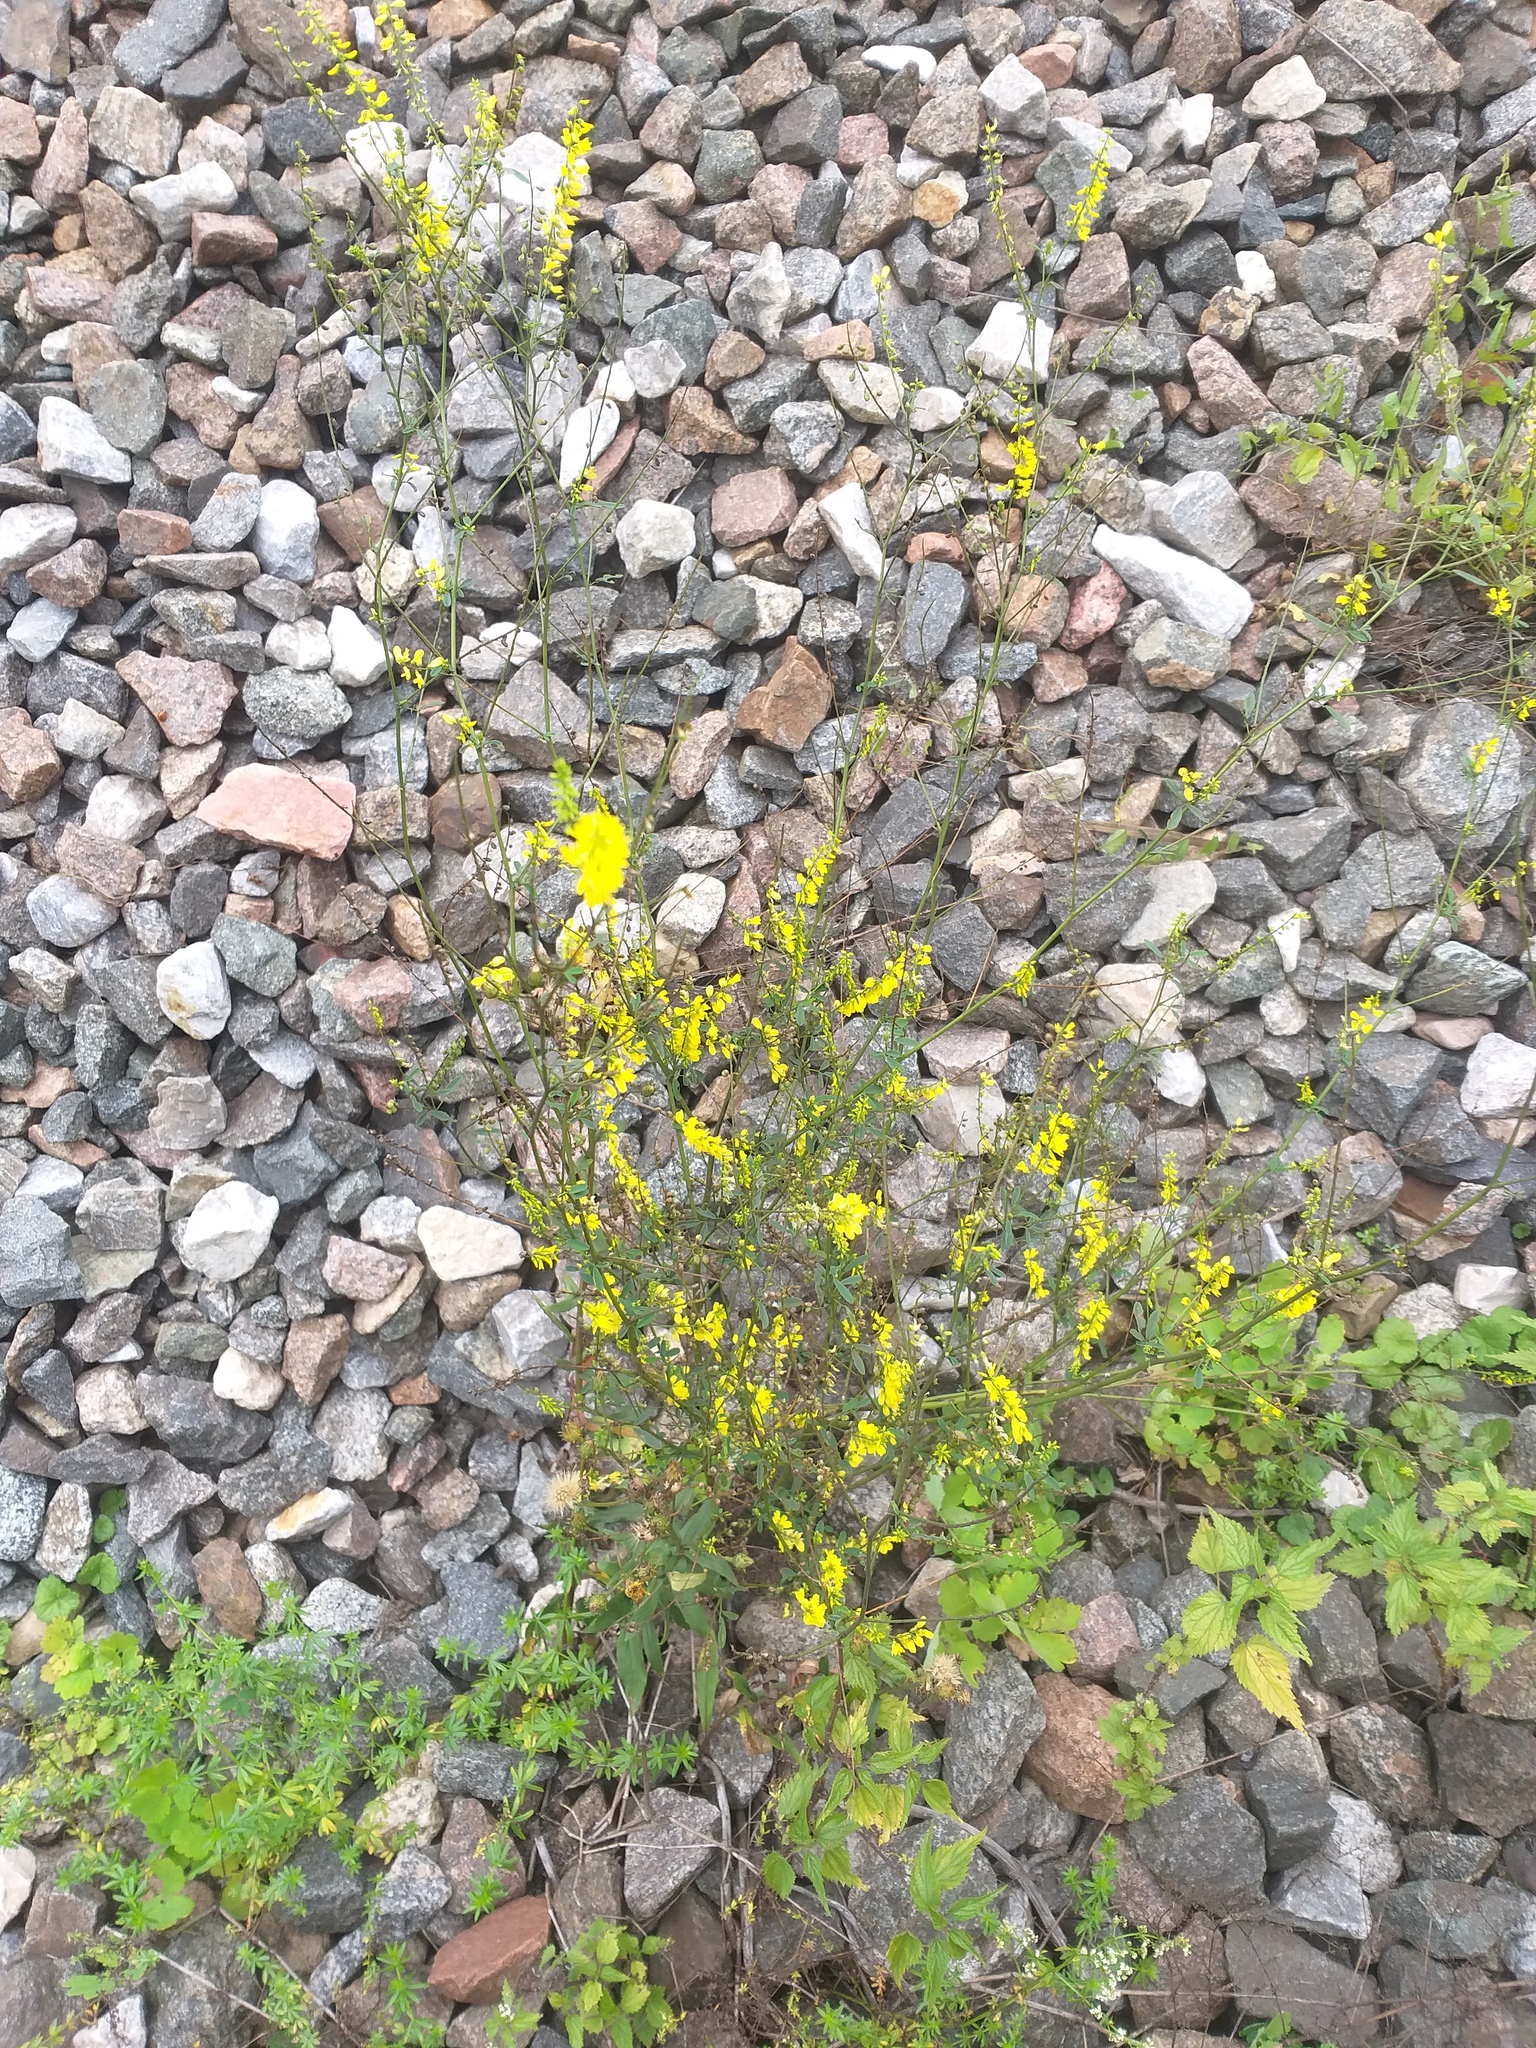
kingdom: Plantae
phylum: Tracheophyta
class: Magnoliopsida
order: Fabales
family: Fabaceae
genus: Melilotus
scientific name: Melilotus officinalis
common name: Sweetclover
